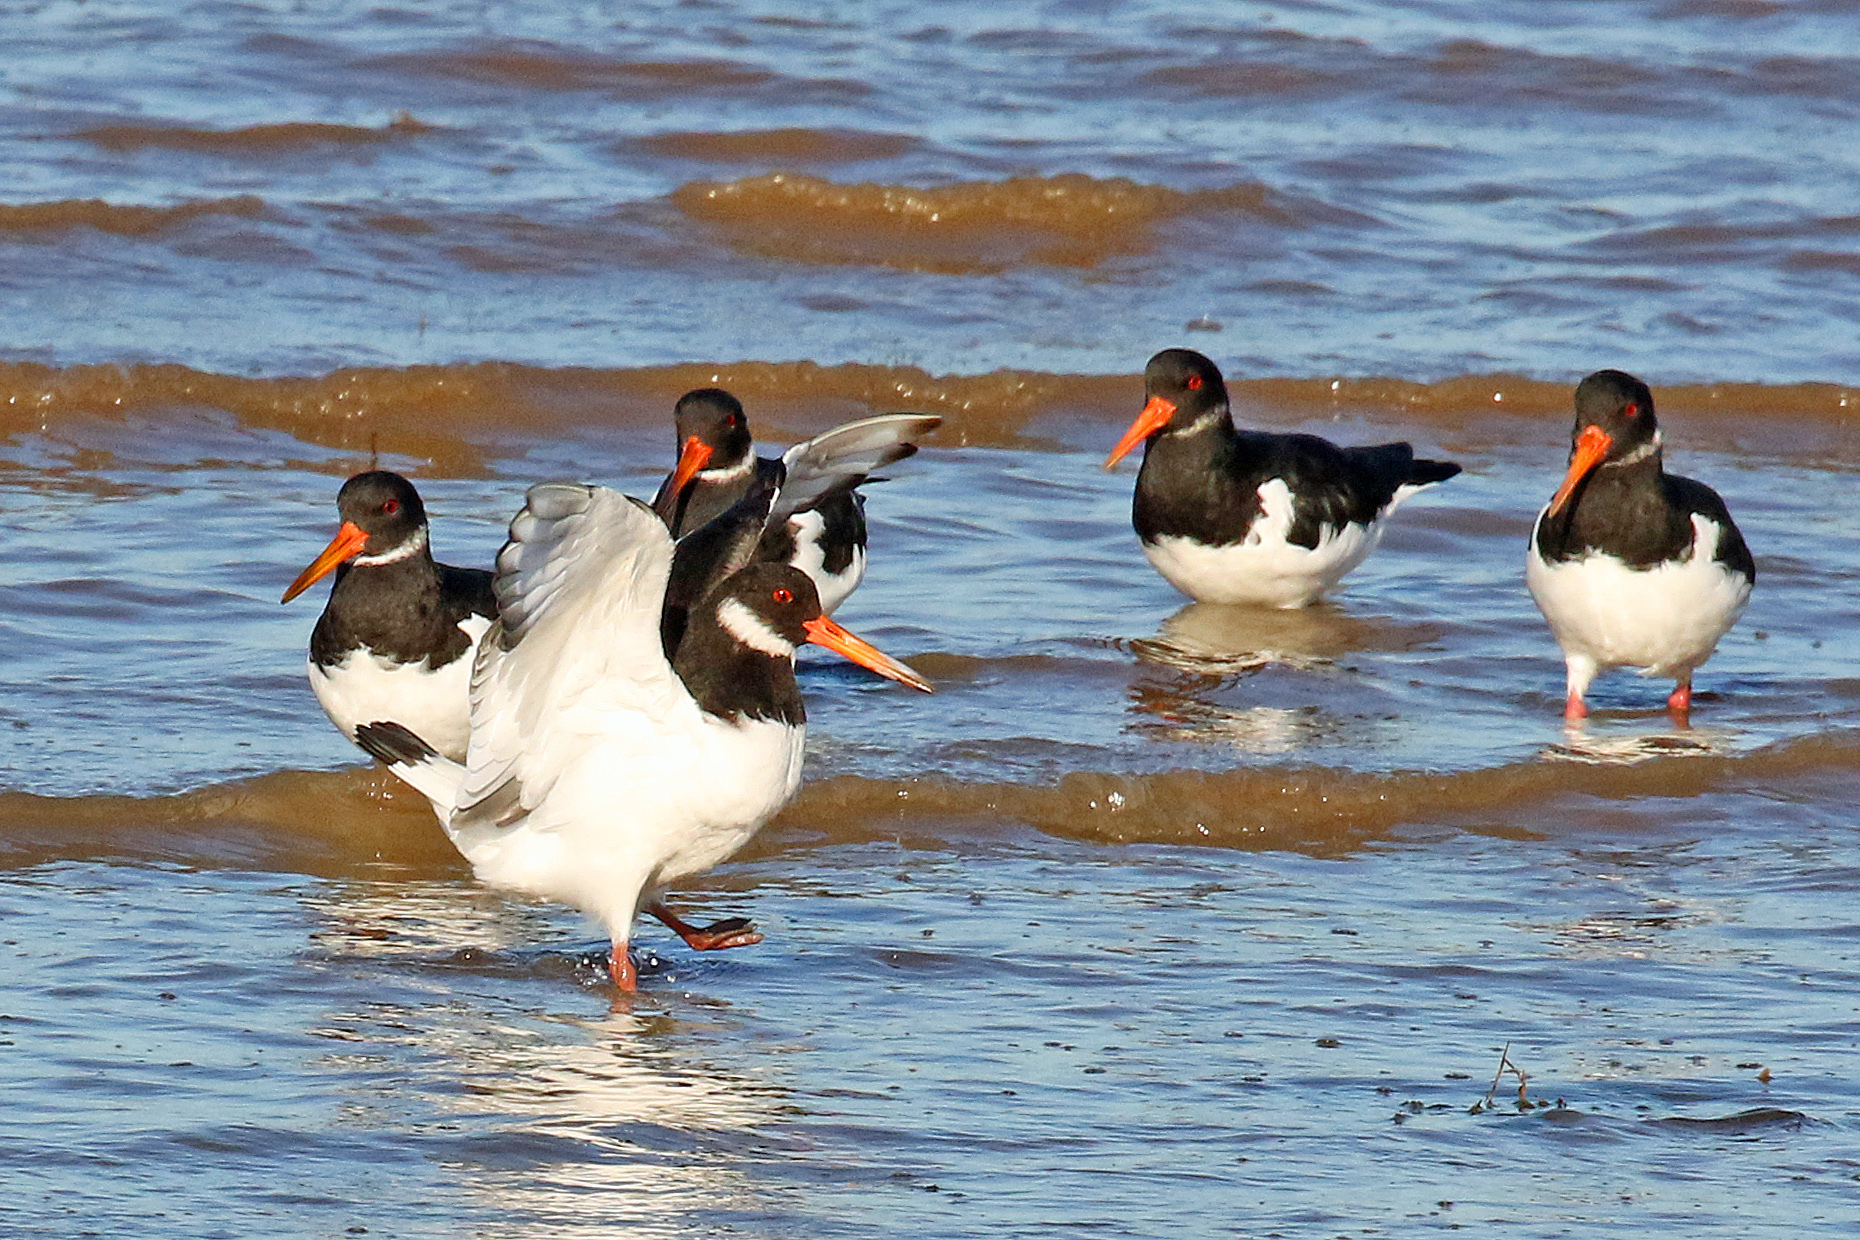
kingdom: Animalia
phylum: Chordata
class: Aves
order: Charadriiformes
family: Haematopodidae
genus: Haematopus
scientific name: Haematopus ostralegus
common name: Eurasian oystercatcher
